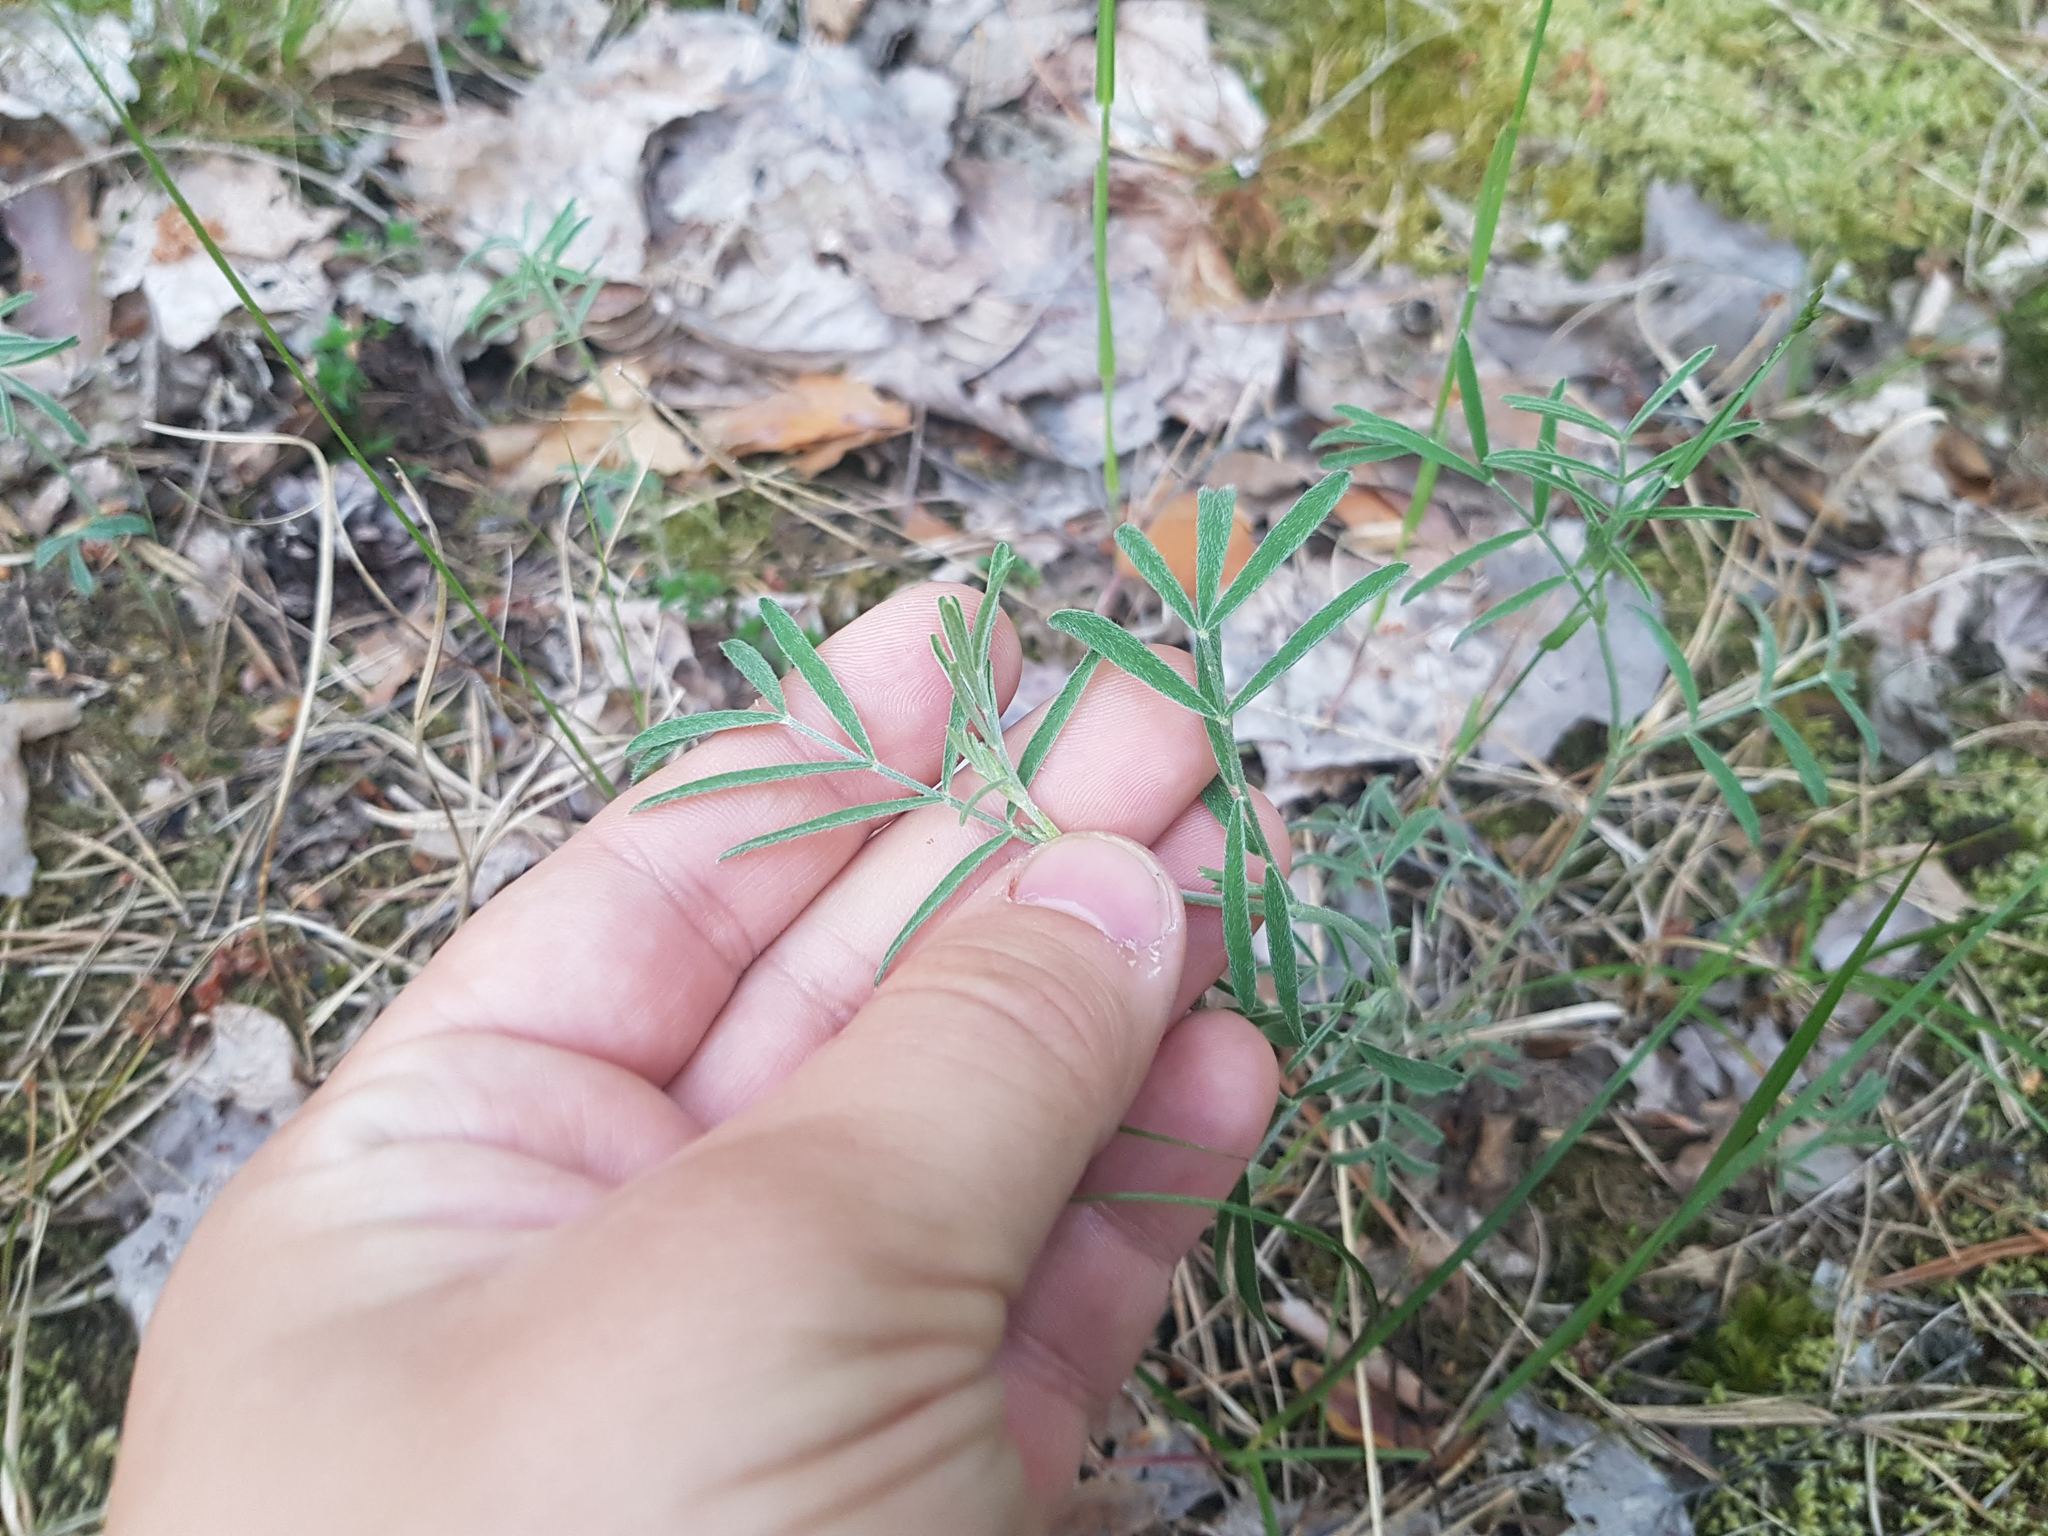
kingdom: Plantae
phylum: Tracheophyta
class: Magnoliopsida
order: Fabales
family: Fabaceae
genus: Astragalus
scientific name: Astragalus arenarius
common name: Arenarious milk-vetch
